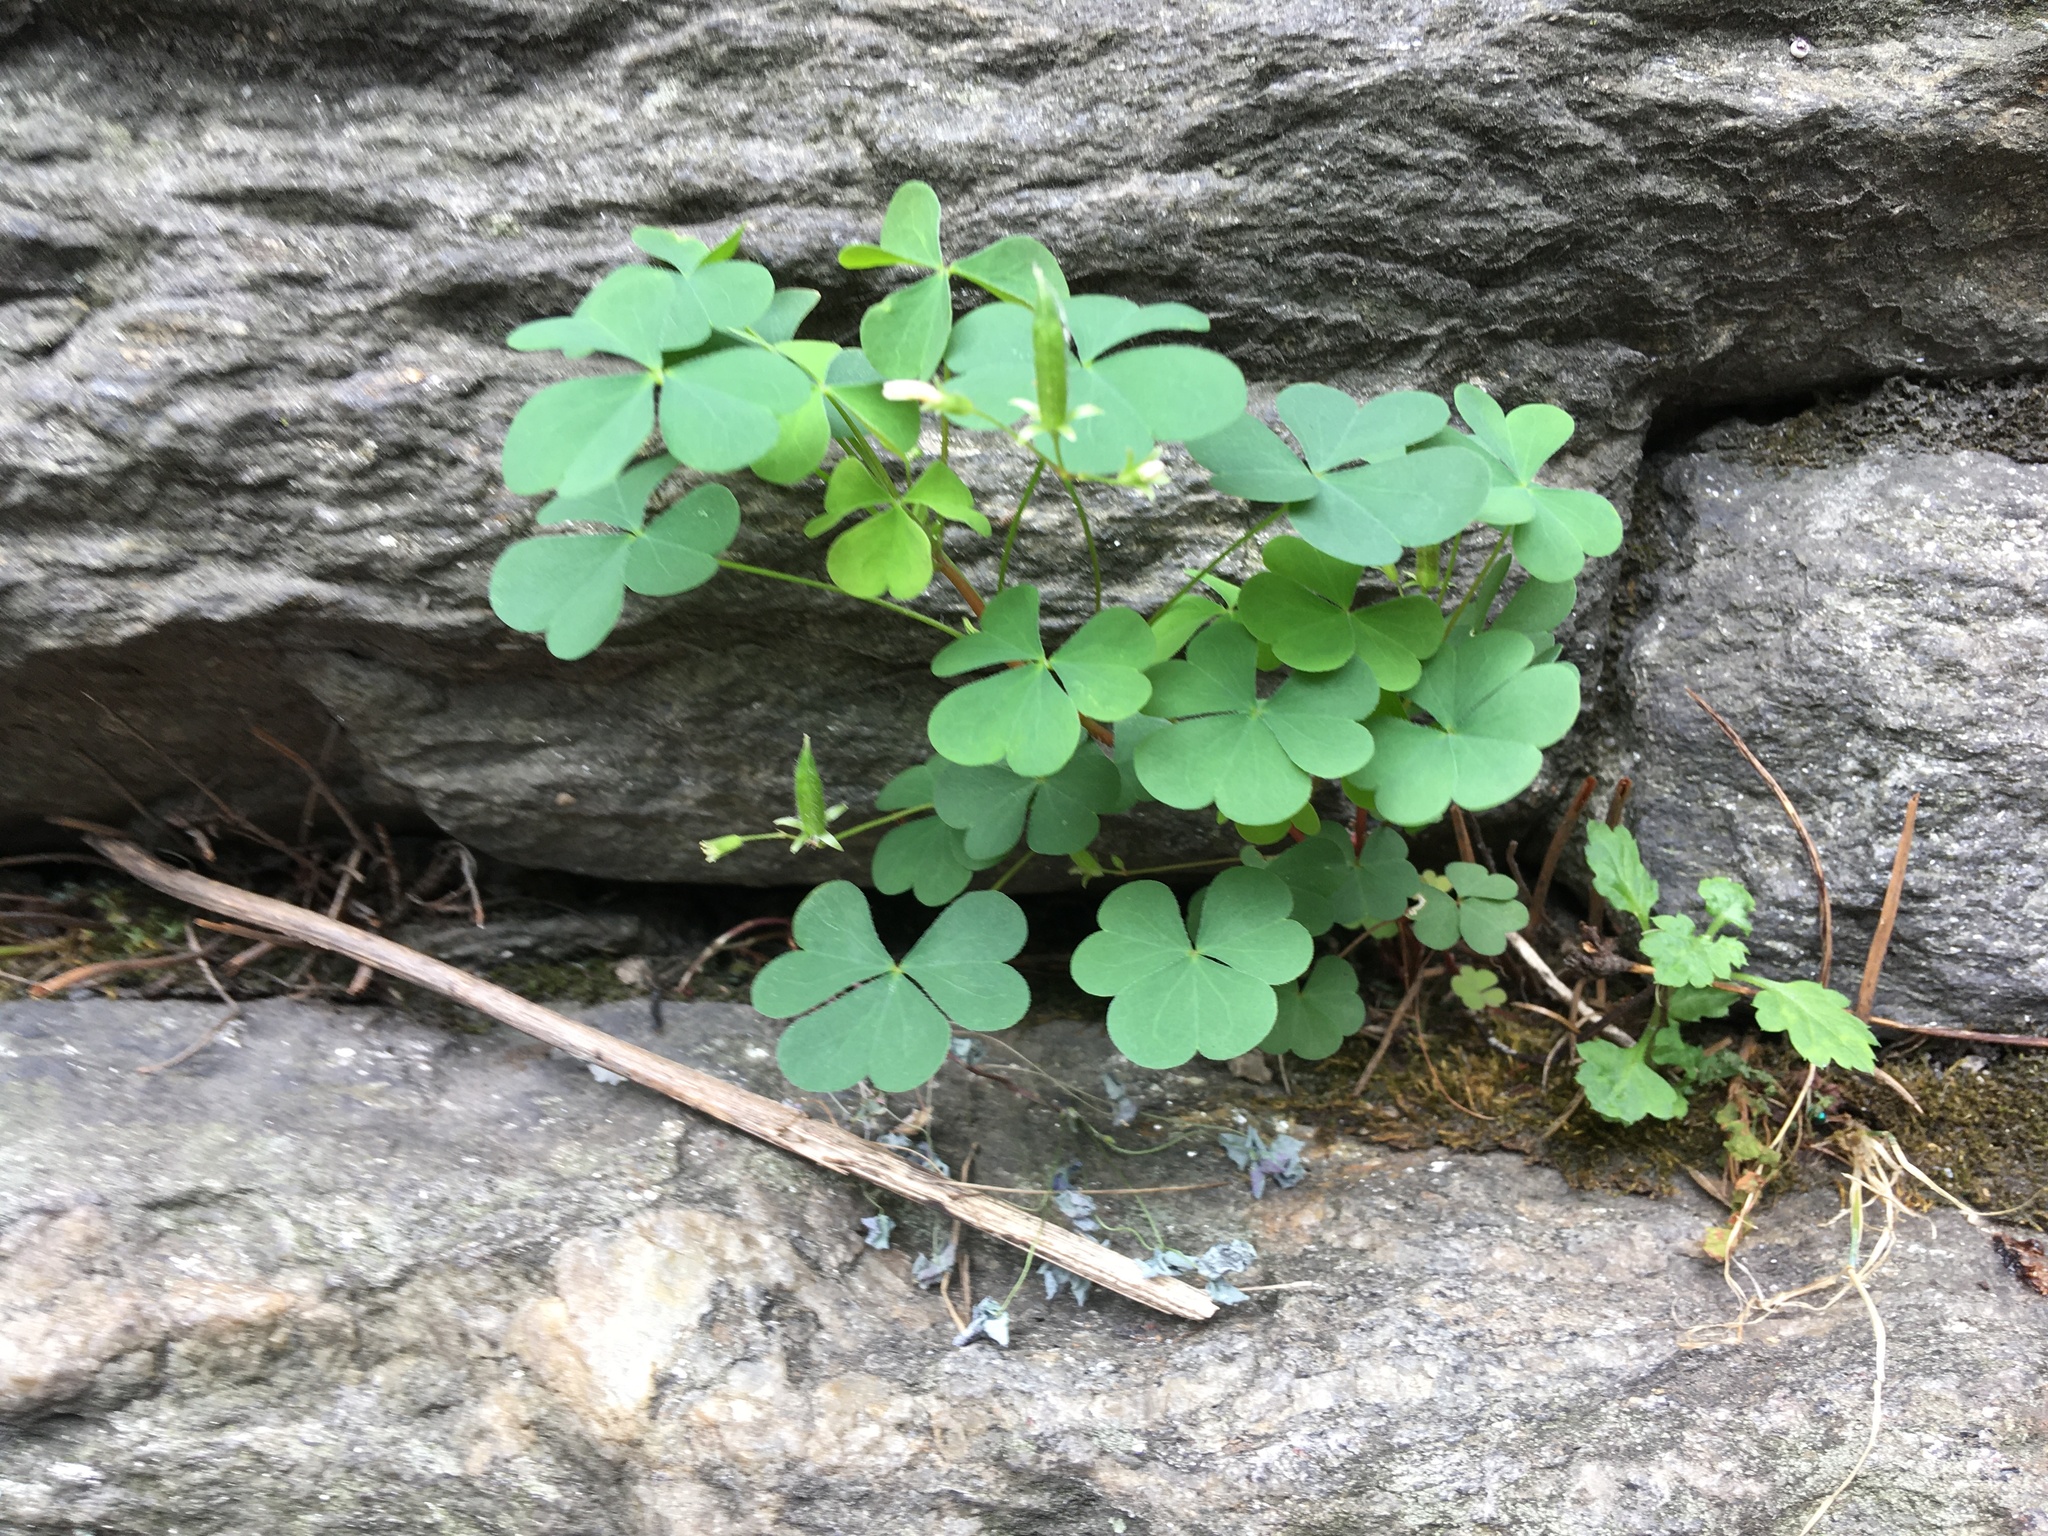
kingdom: Plantae
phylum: Tracheophyta
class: Magnoliopsida
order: Oxalidales
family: Oxalidaceae
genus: Oxalis
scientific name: Oxalis corniculata
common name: Procumbent yellow-sorrel
